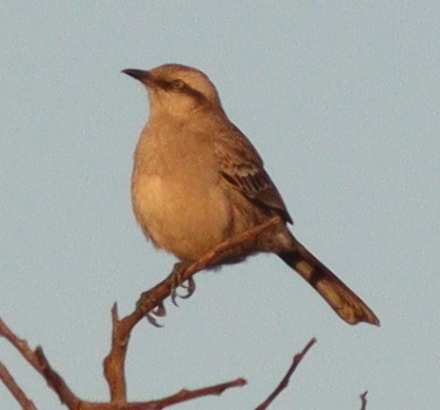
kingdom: Animalia
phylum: Chordata
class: Aves
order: Passeriformes
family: Mimidae
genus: Mimus
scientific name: Mimus saturninus
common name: Chalk-browed mockingbird
